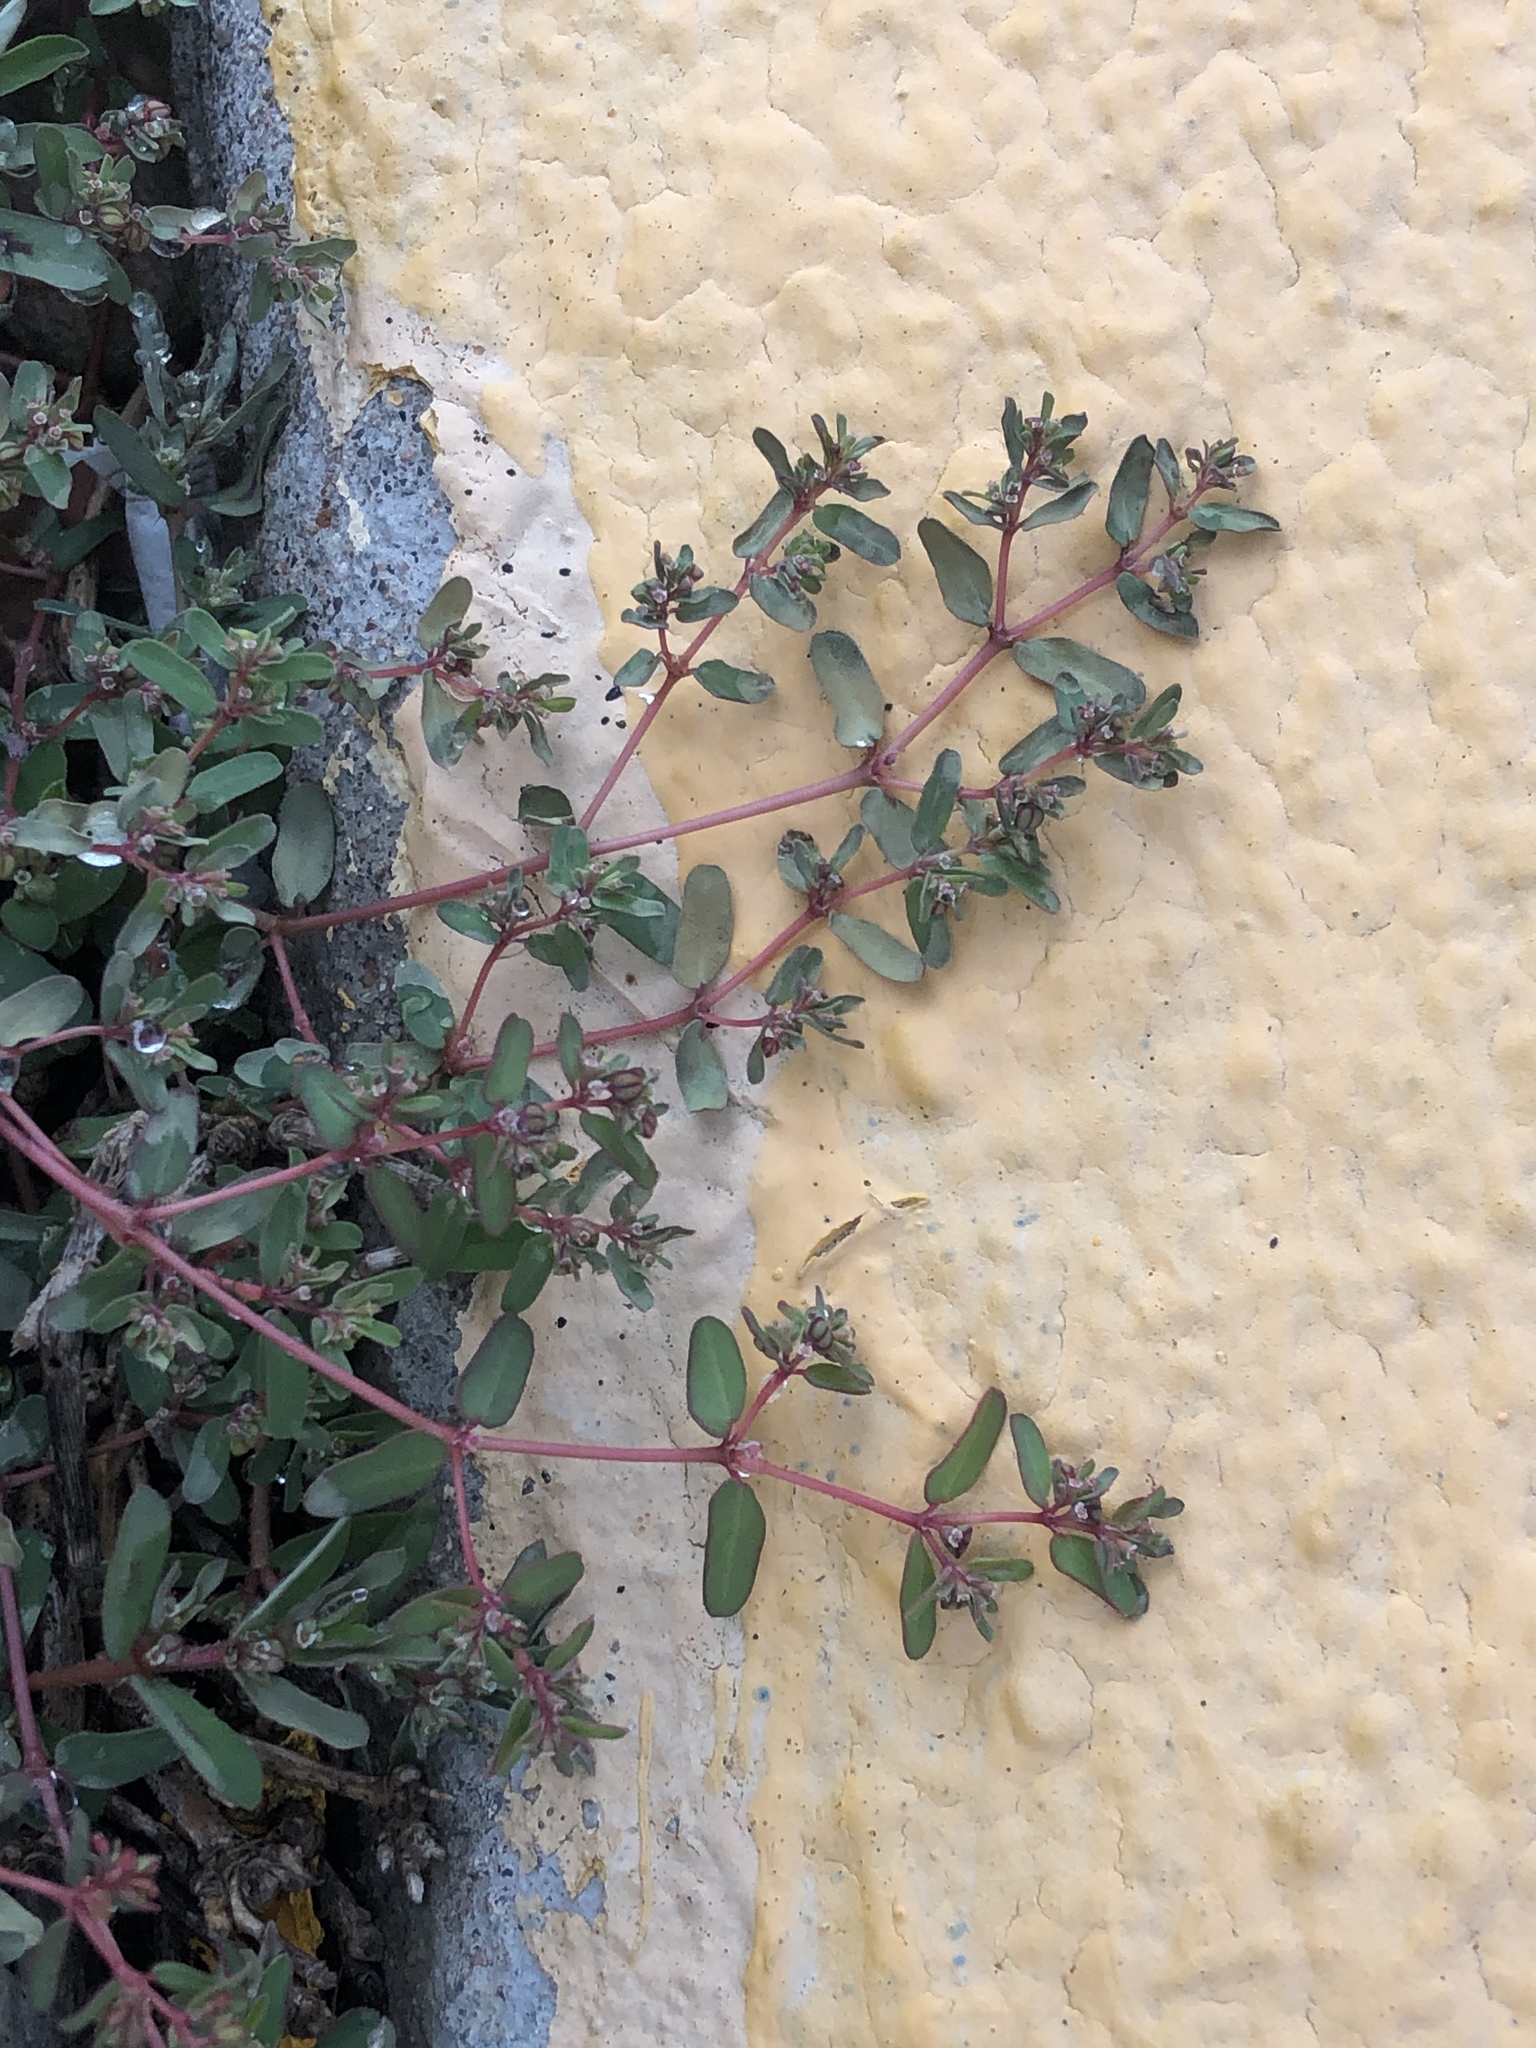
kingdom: Plantae
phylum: Tracheophyta
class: Magnoliopsida
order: Malpighiales
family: Euphorbiaceae
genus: Euphorbia
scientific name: Euphorbia maculata
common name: Spotted spurge
